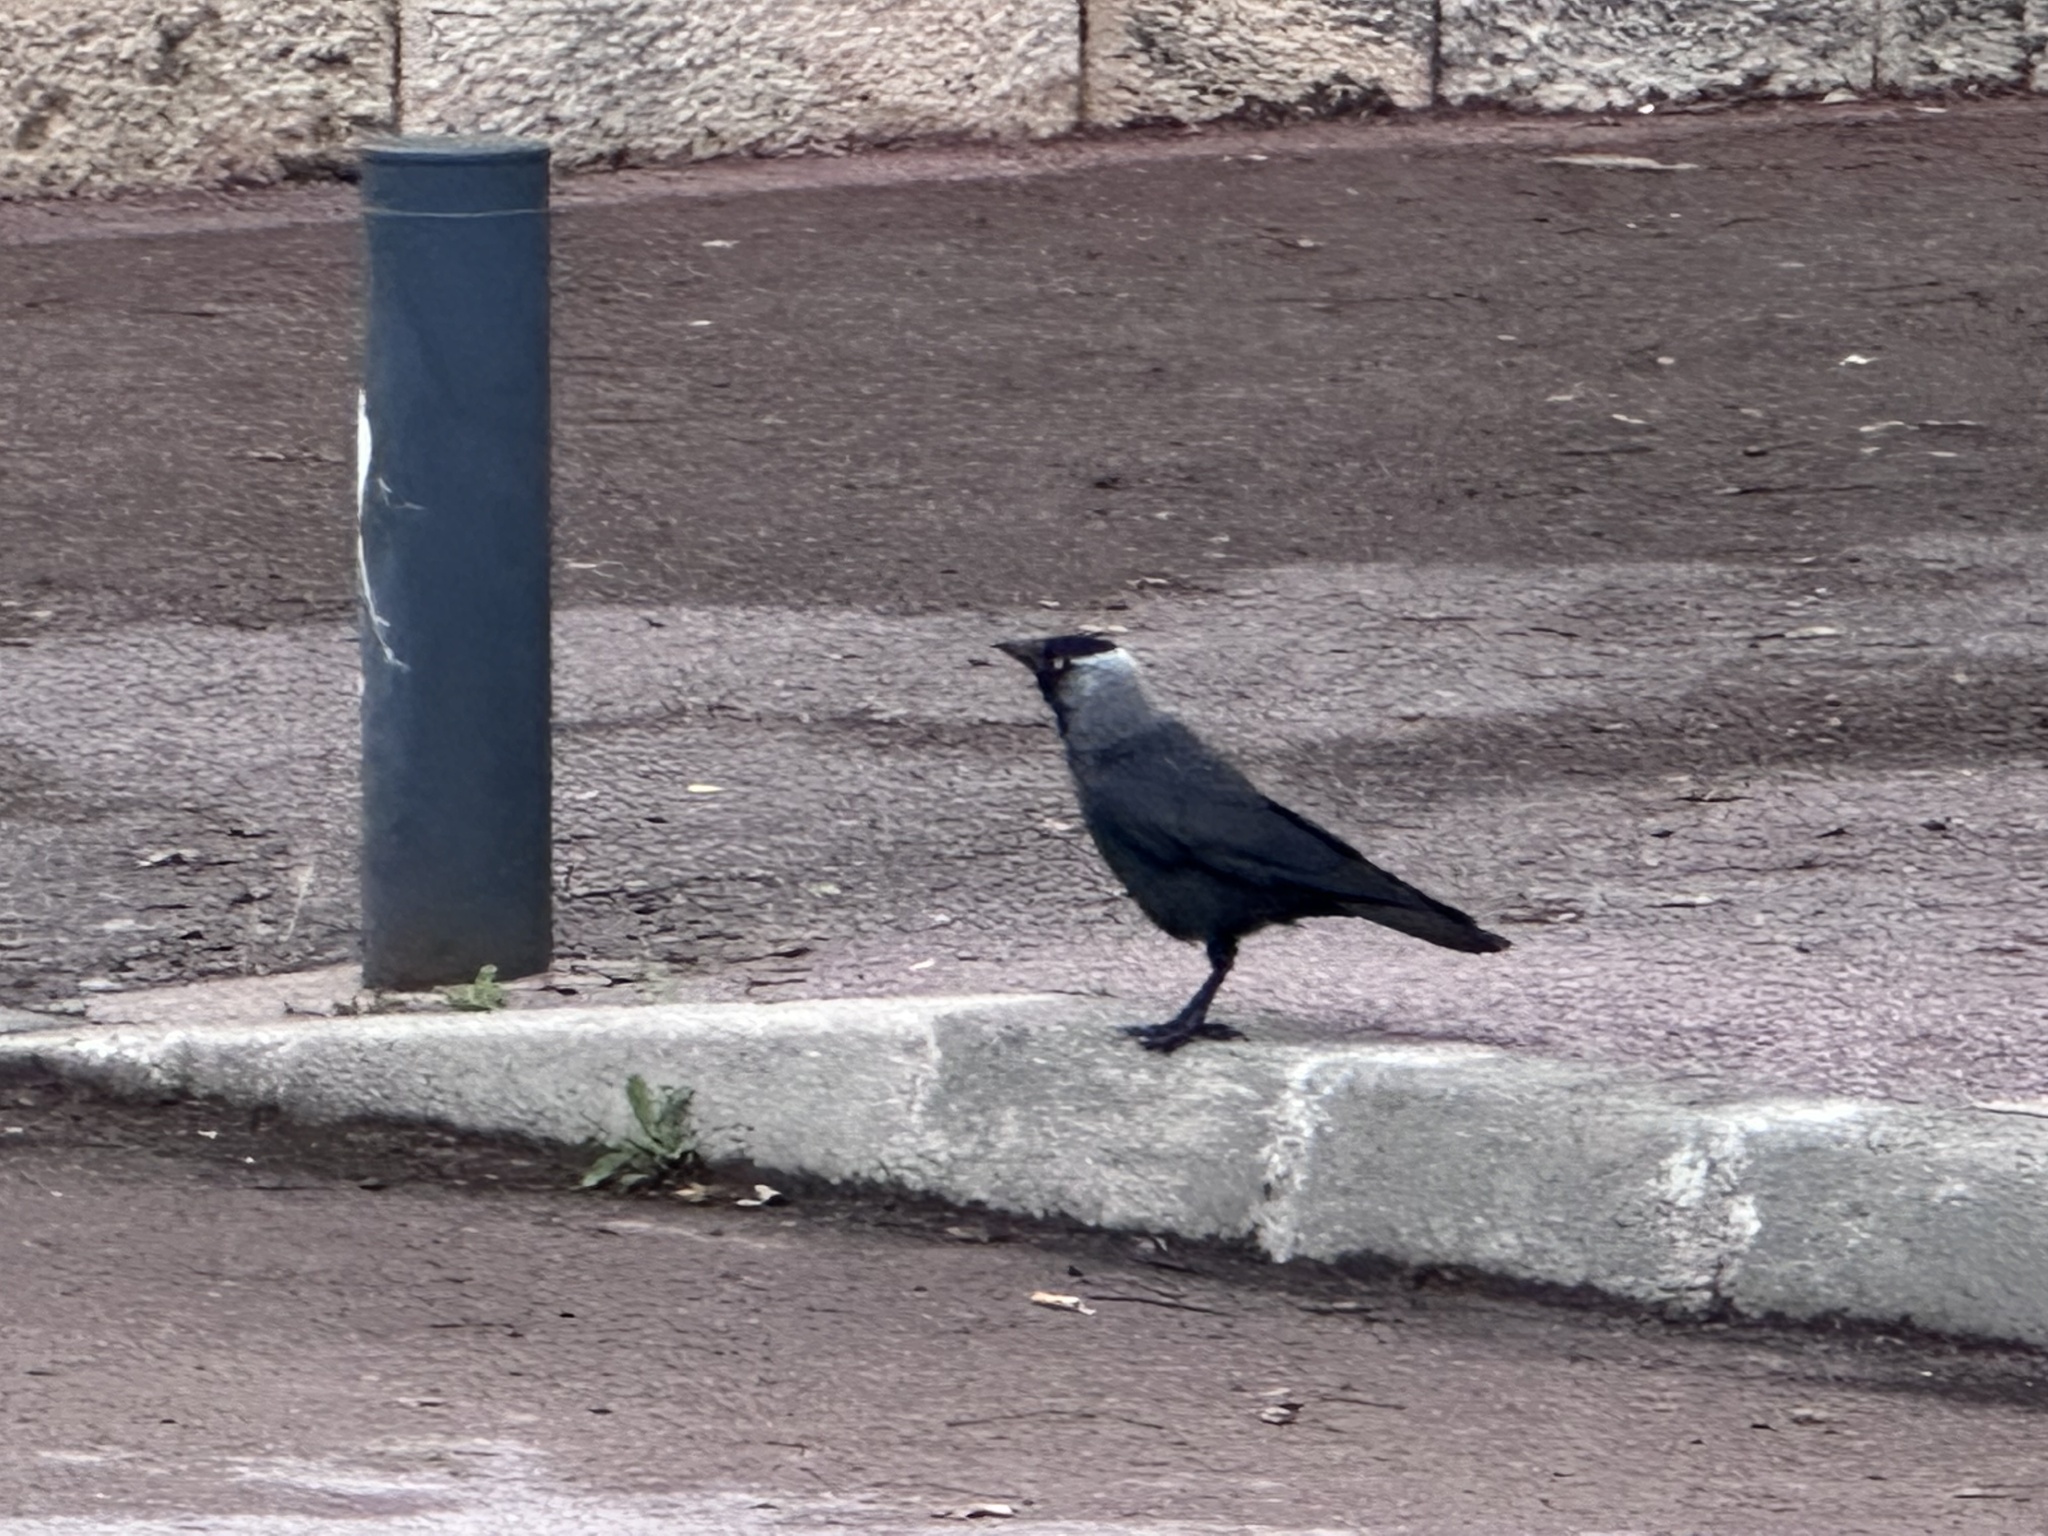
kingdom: Animalia
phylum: Chordata
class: Aves
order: Passeriformes
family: Corvidae
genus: Coloeus
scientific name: Coloeus monedula
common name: Western jackdaw
